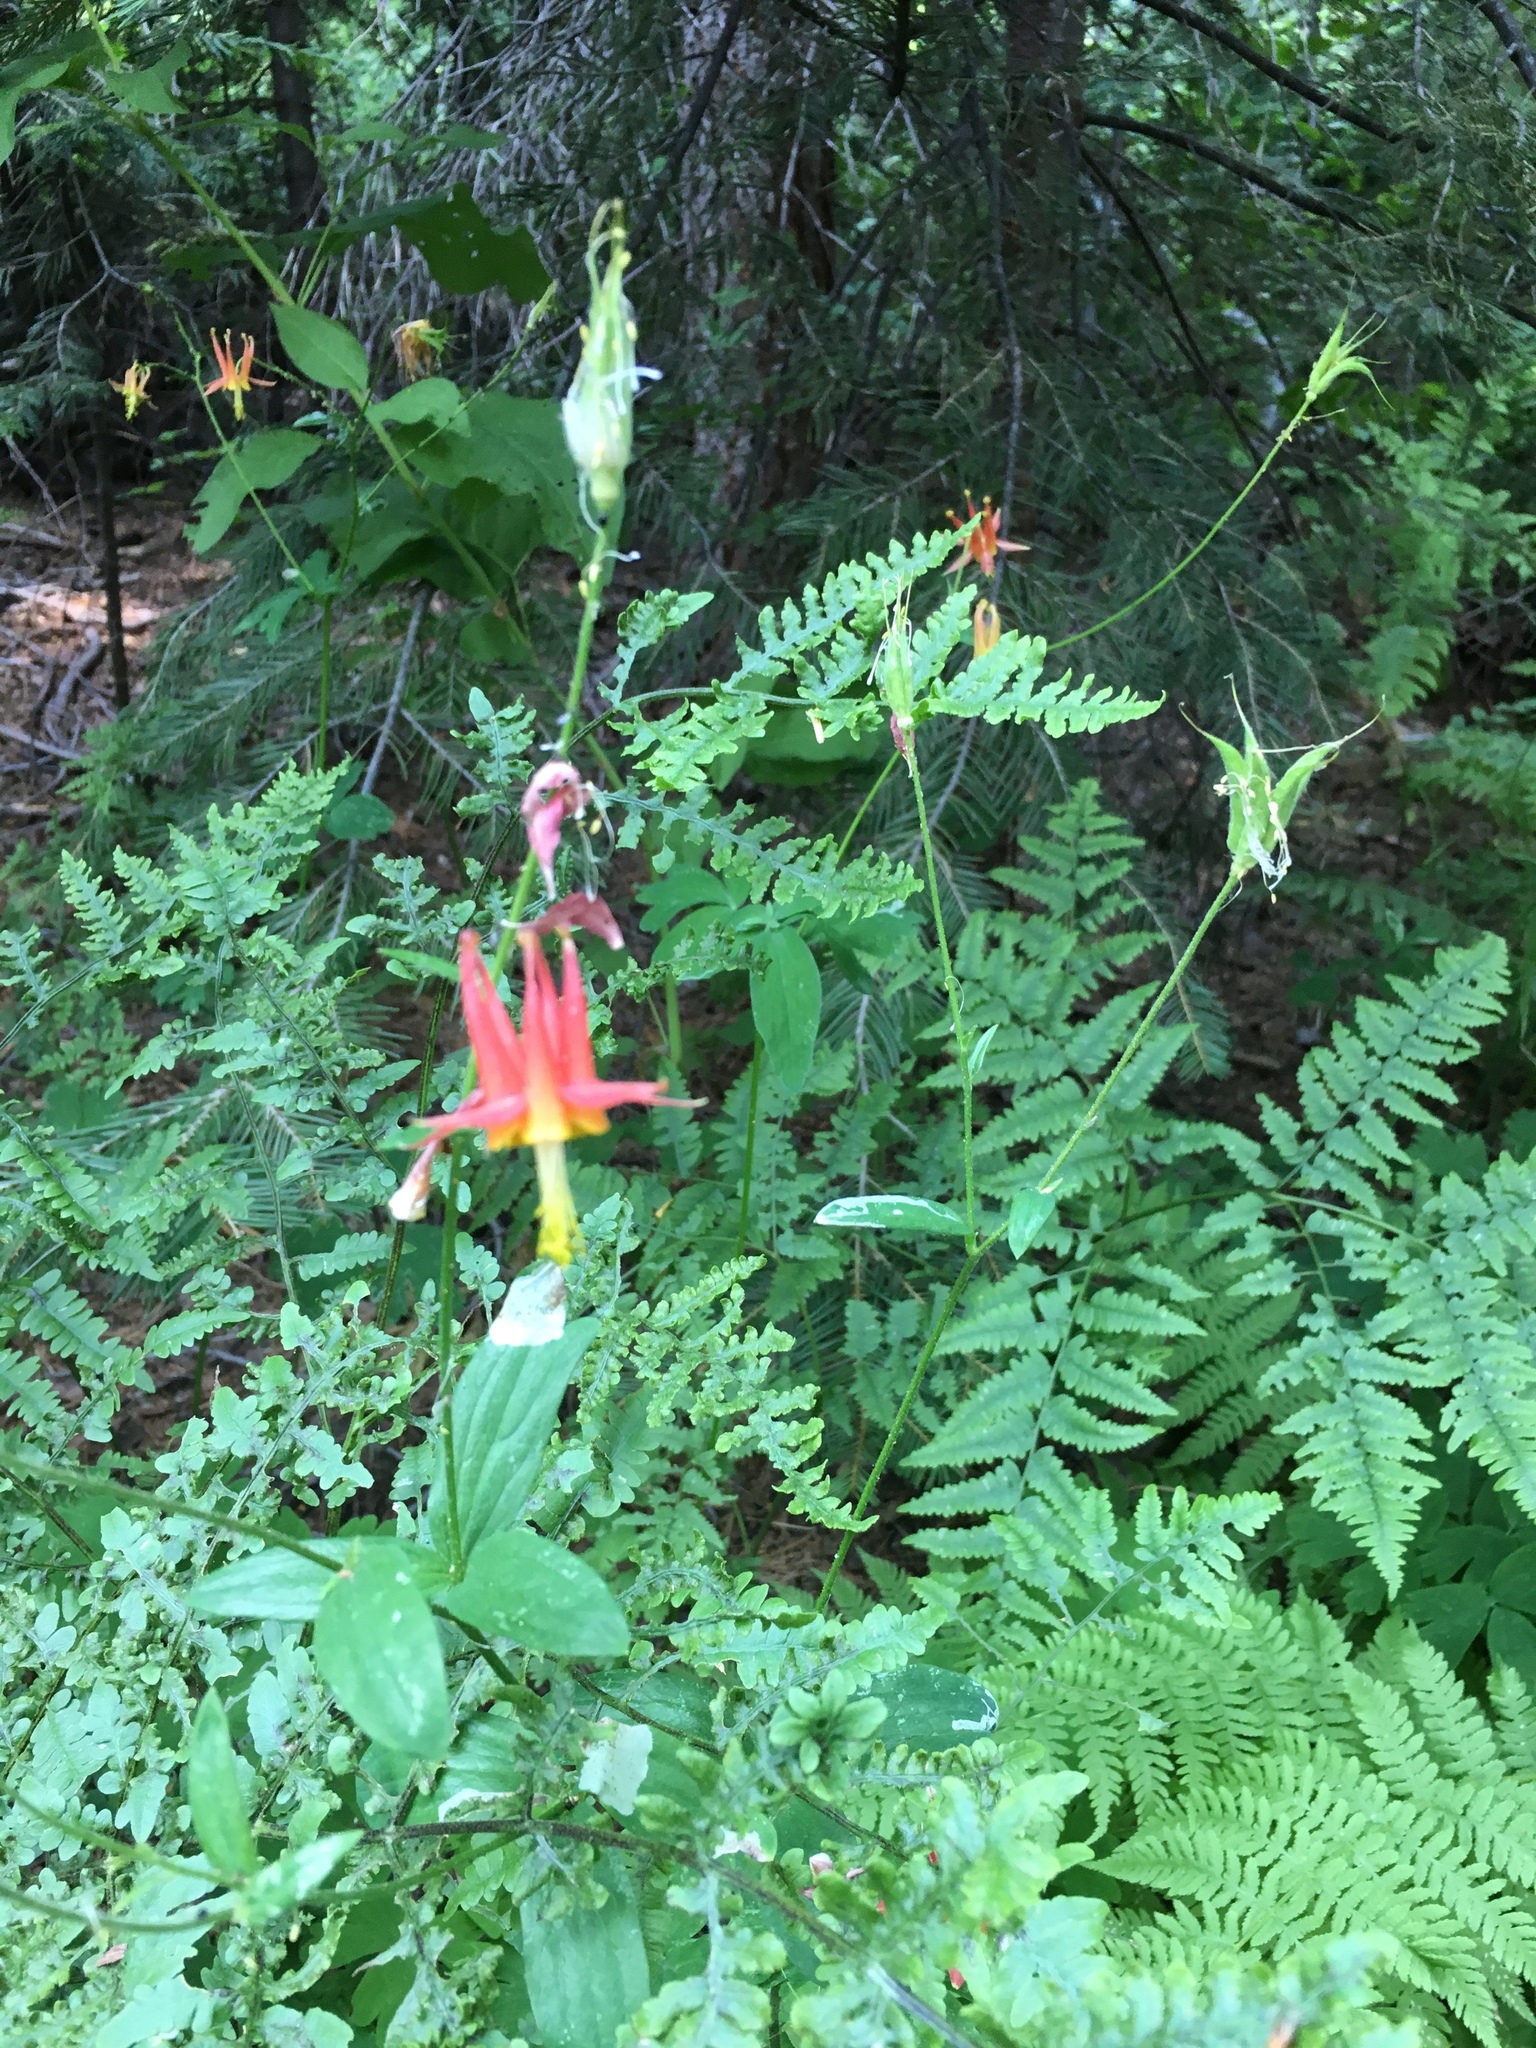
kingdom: Plantae
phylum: Tracheophyta
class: Magnoliopsida
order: Ranunculales
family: Ranunculaceae
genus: Aquilegia
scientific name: Aquilegia formosa
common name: Sitka columbine
